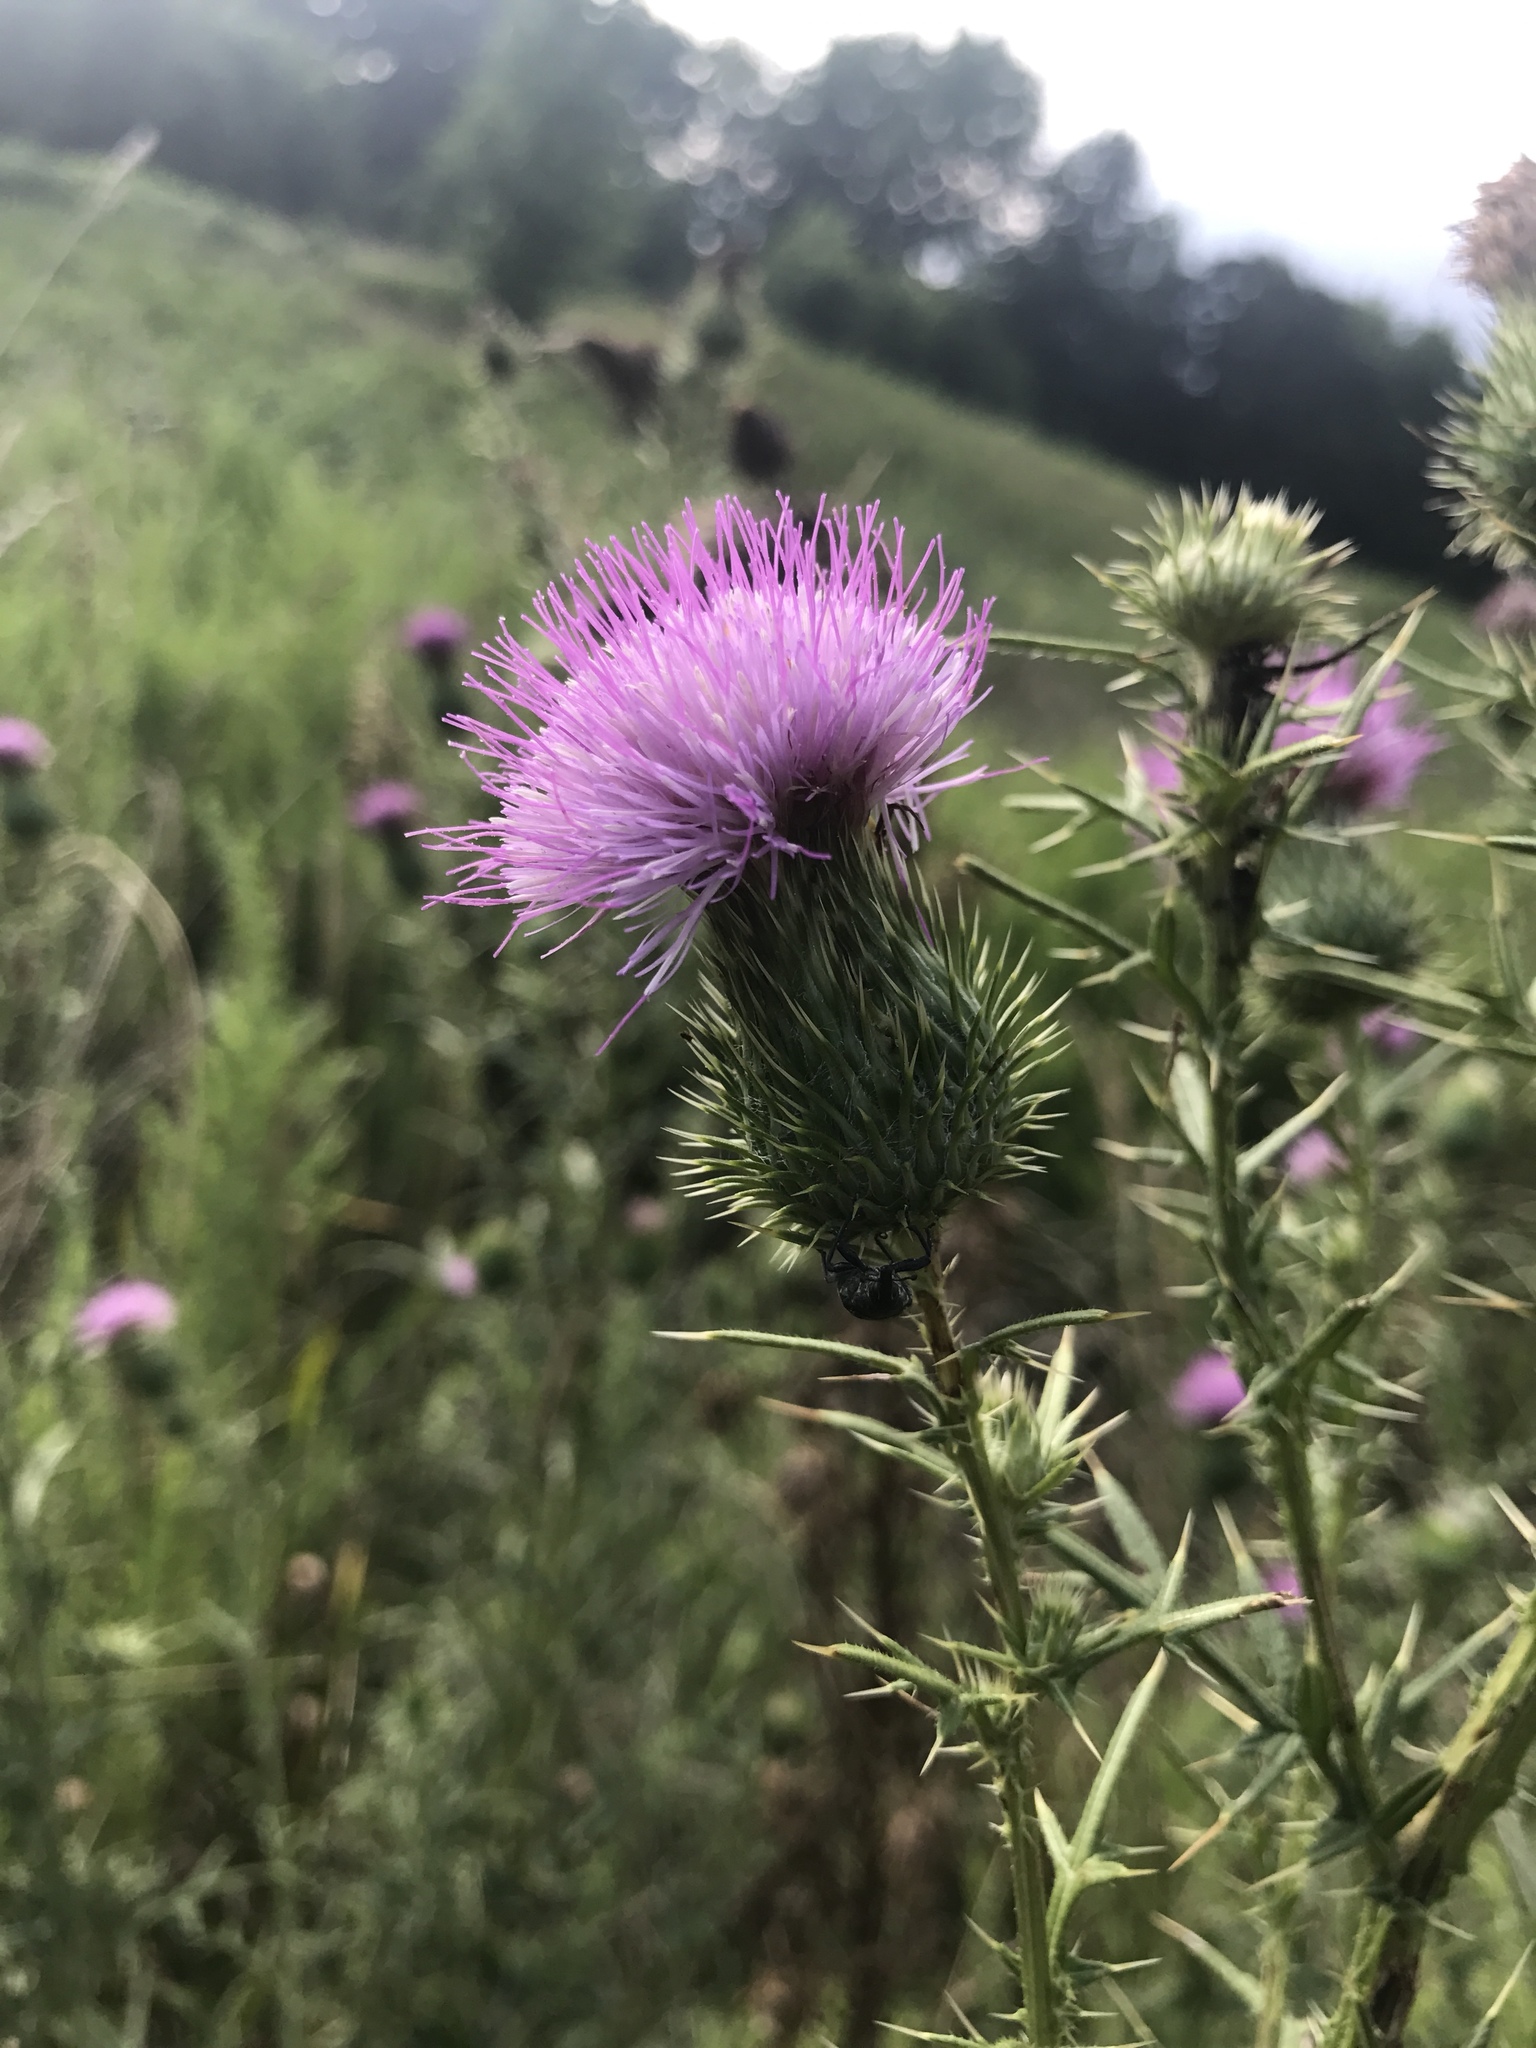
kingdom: Plantae
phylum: Tracheophyta
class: Magnoliopsida
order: Asterales
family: Asteraceae
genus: Cirsium
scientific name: Cirsium vulgare
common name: Bull thistle
